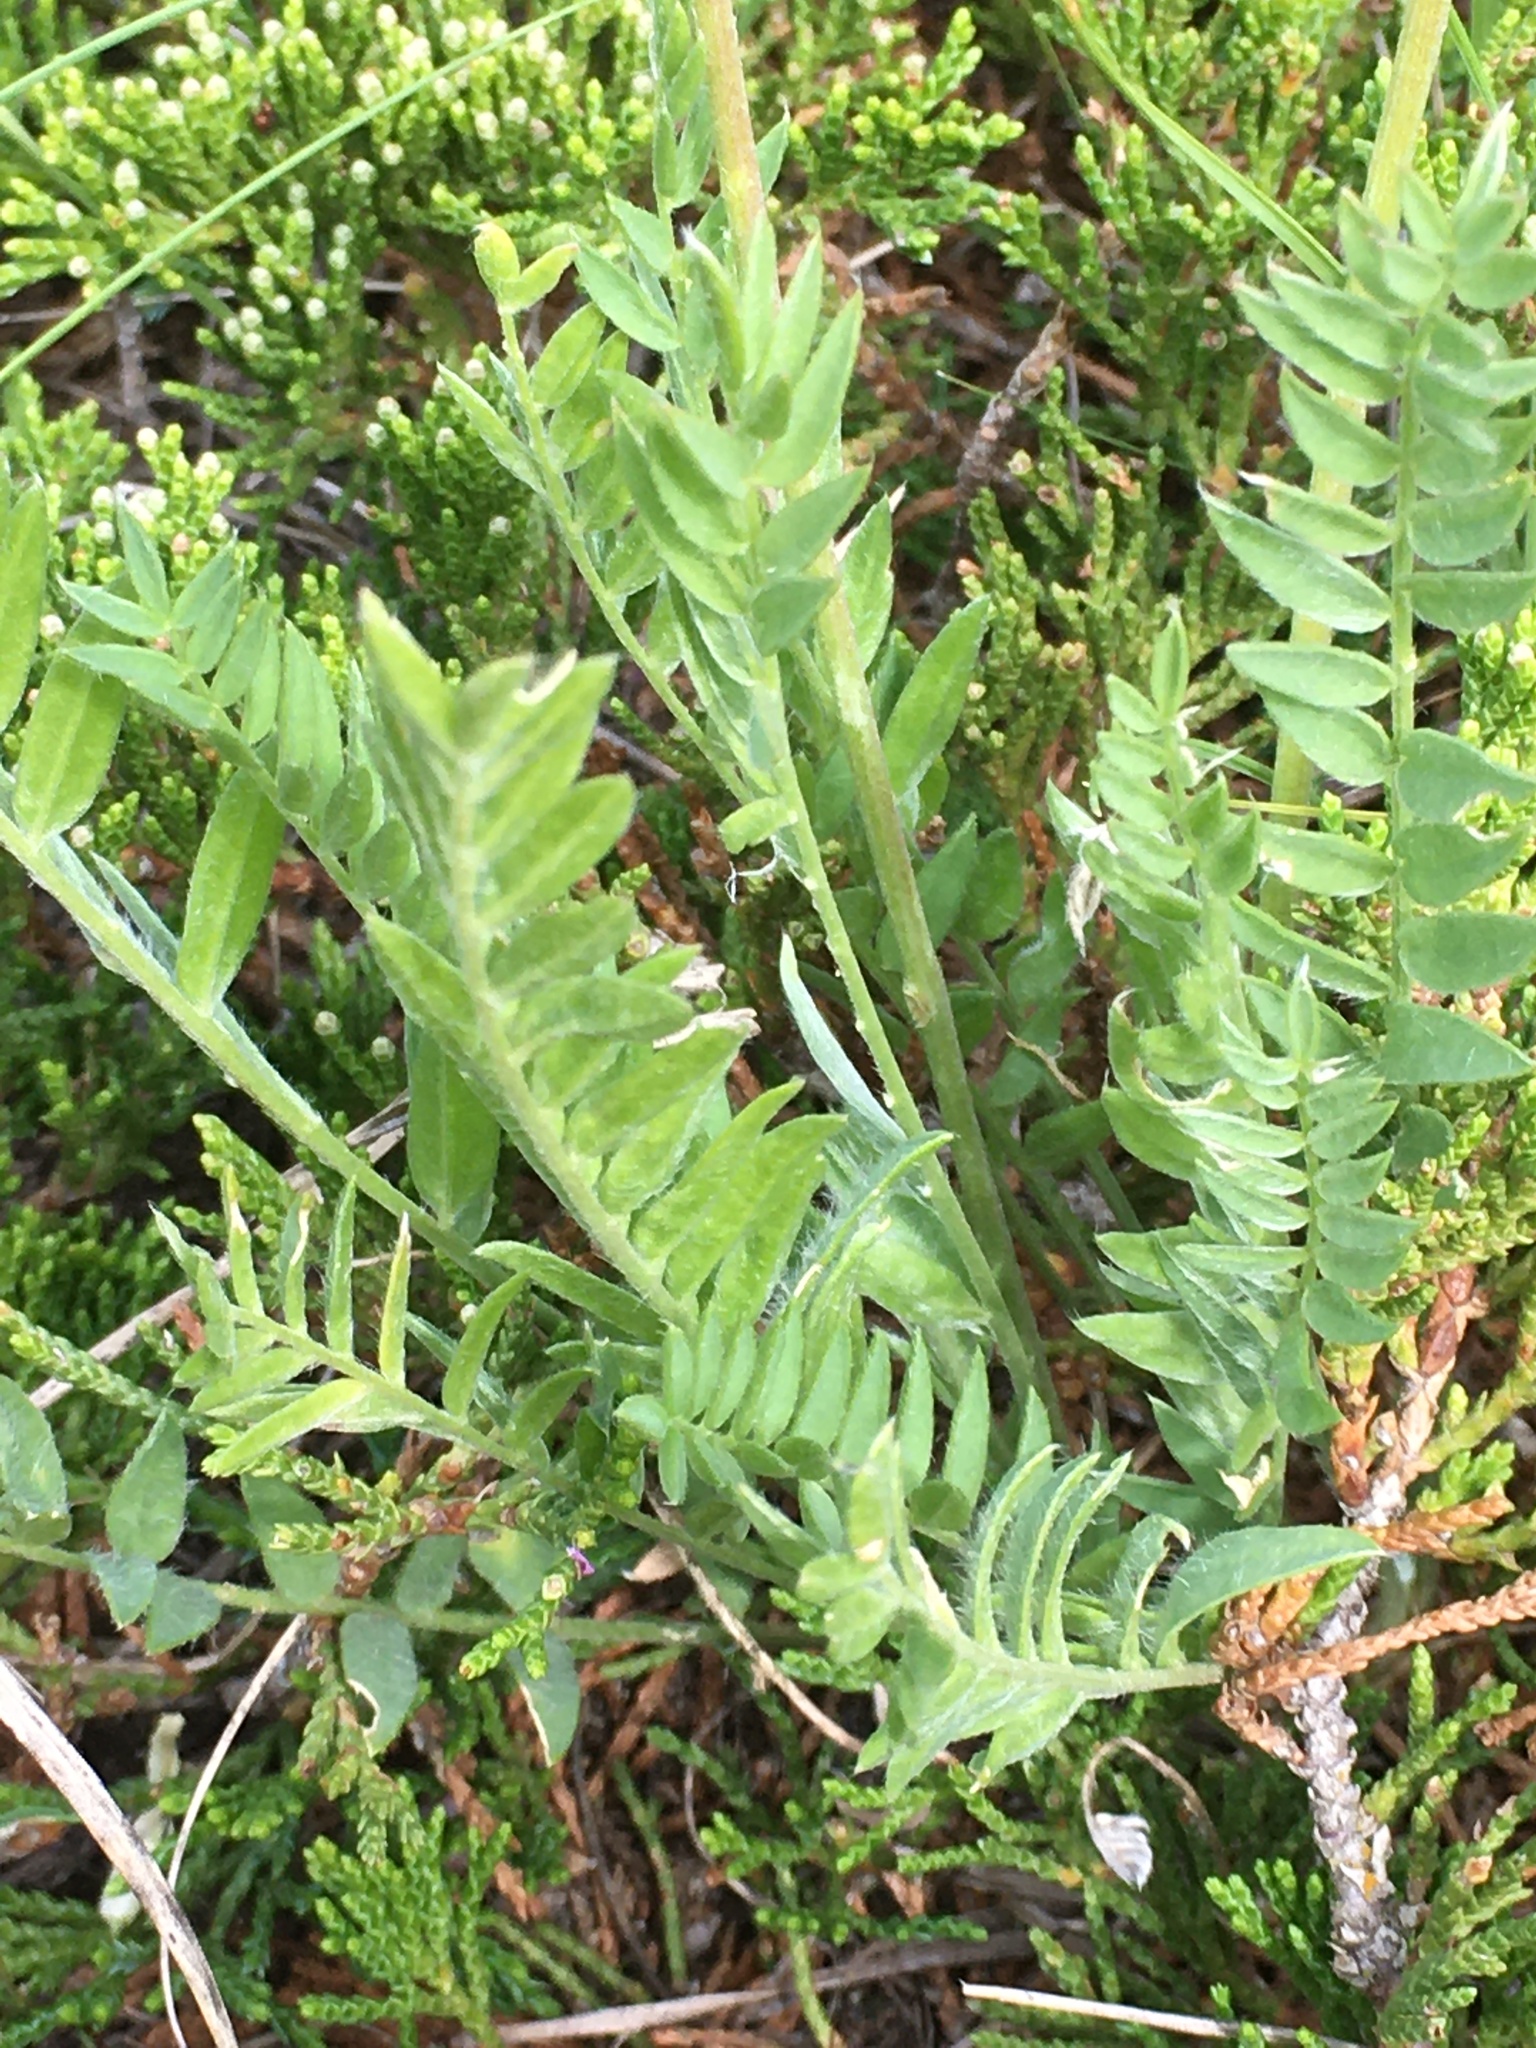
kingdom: Plantae
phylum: Tracheophyta
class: Magnoliopsida
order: Fabales
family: Fabaceae
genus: Oxytropis
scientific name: Oxytropis campestris
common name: Field locoweed
